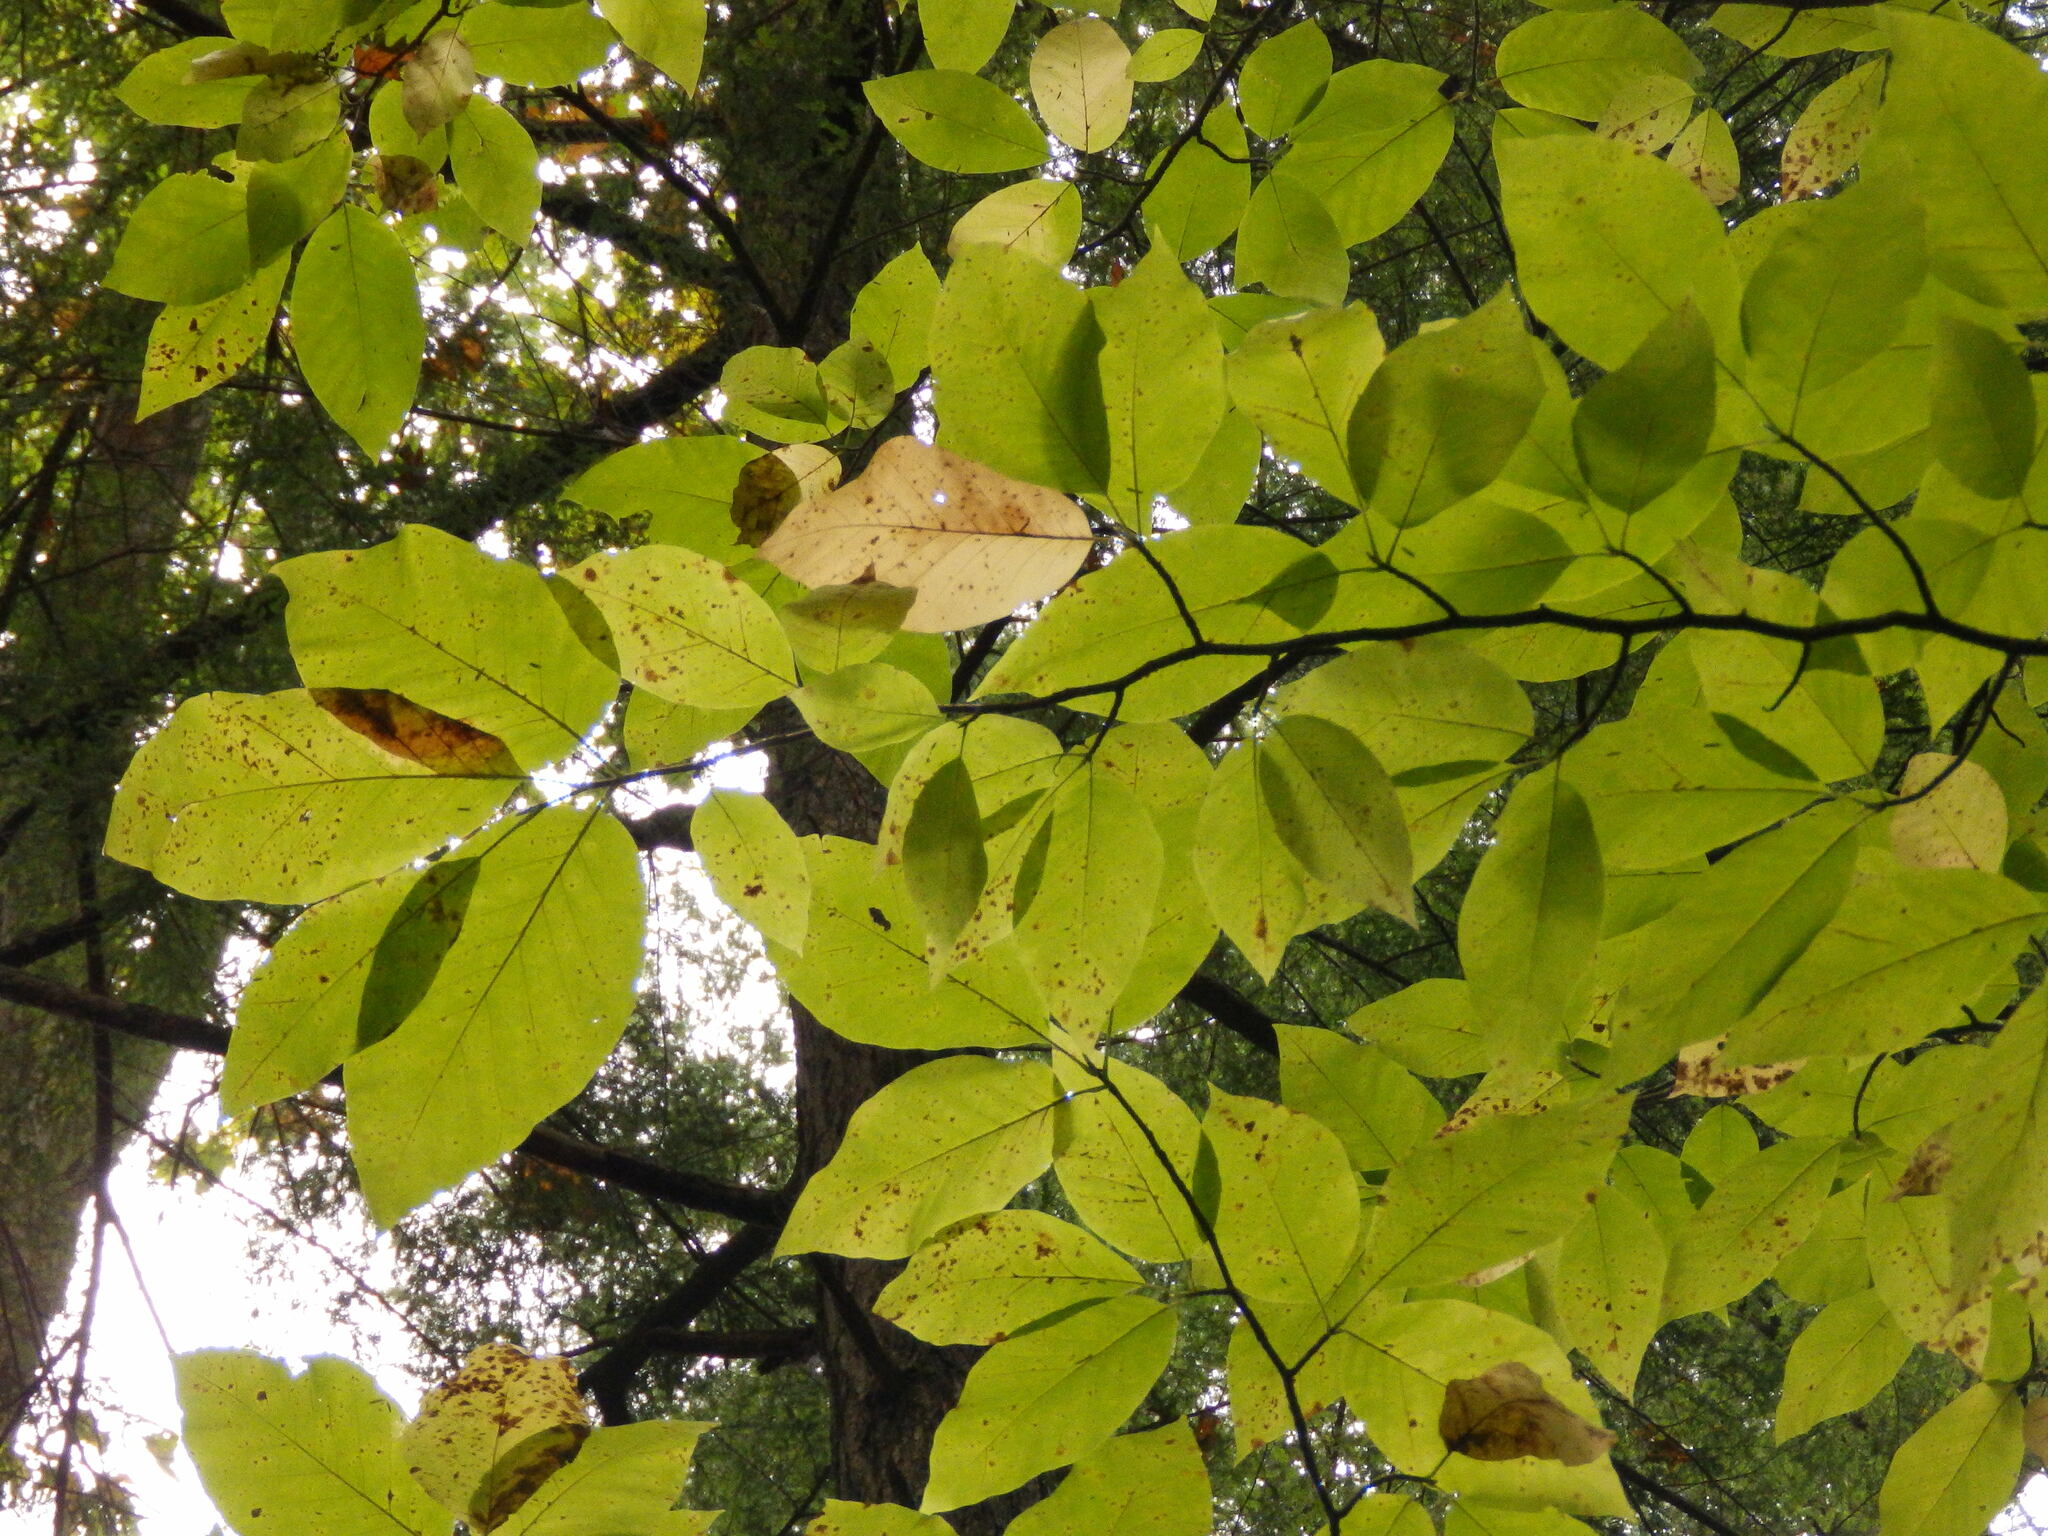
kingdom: Plantae
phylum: Tracheophyta
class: Magnoliopsida
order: Magnoliales
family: Magnoliaceae
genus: Magnolia
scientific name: Magnolia acuminata
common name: Cucumber magnolia
